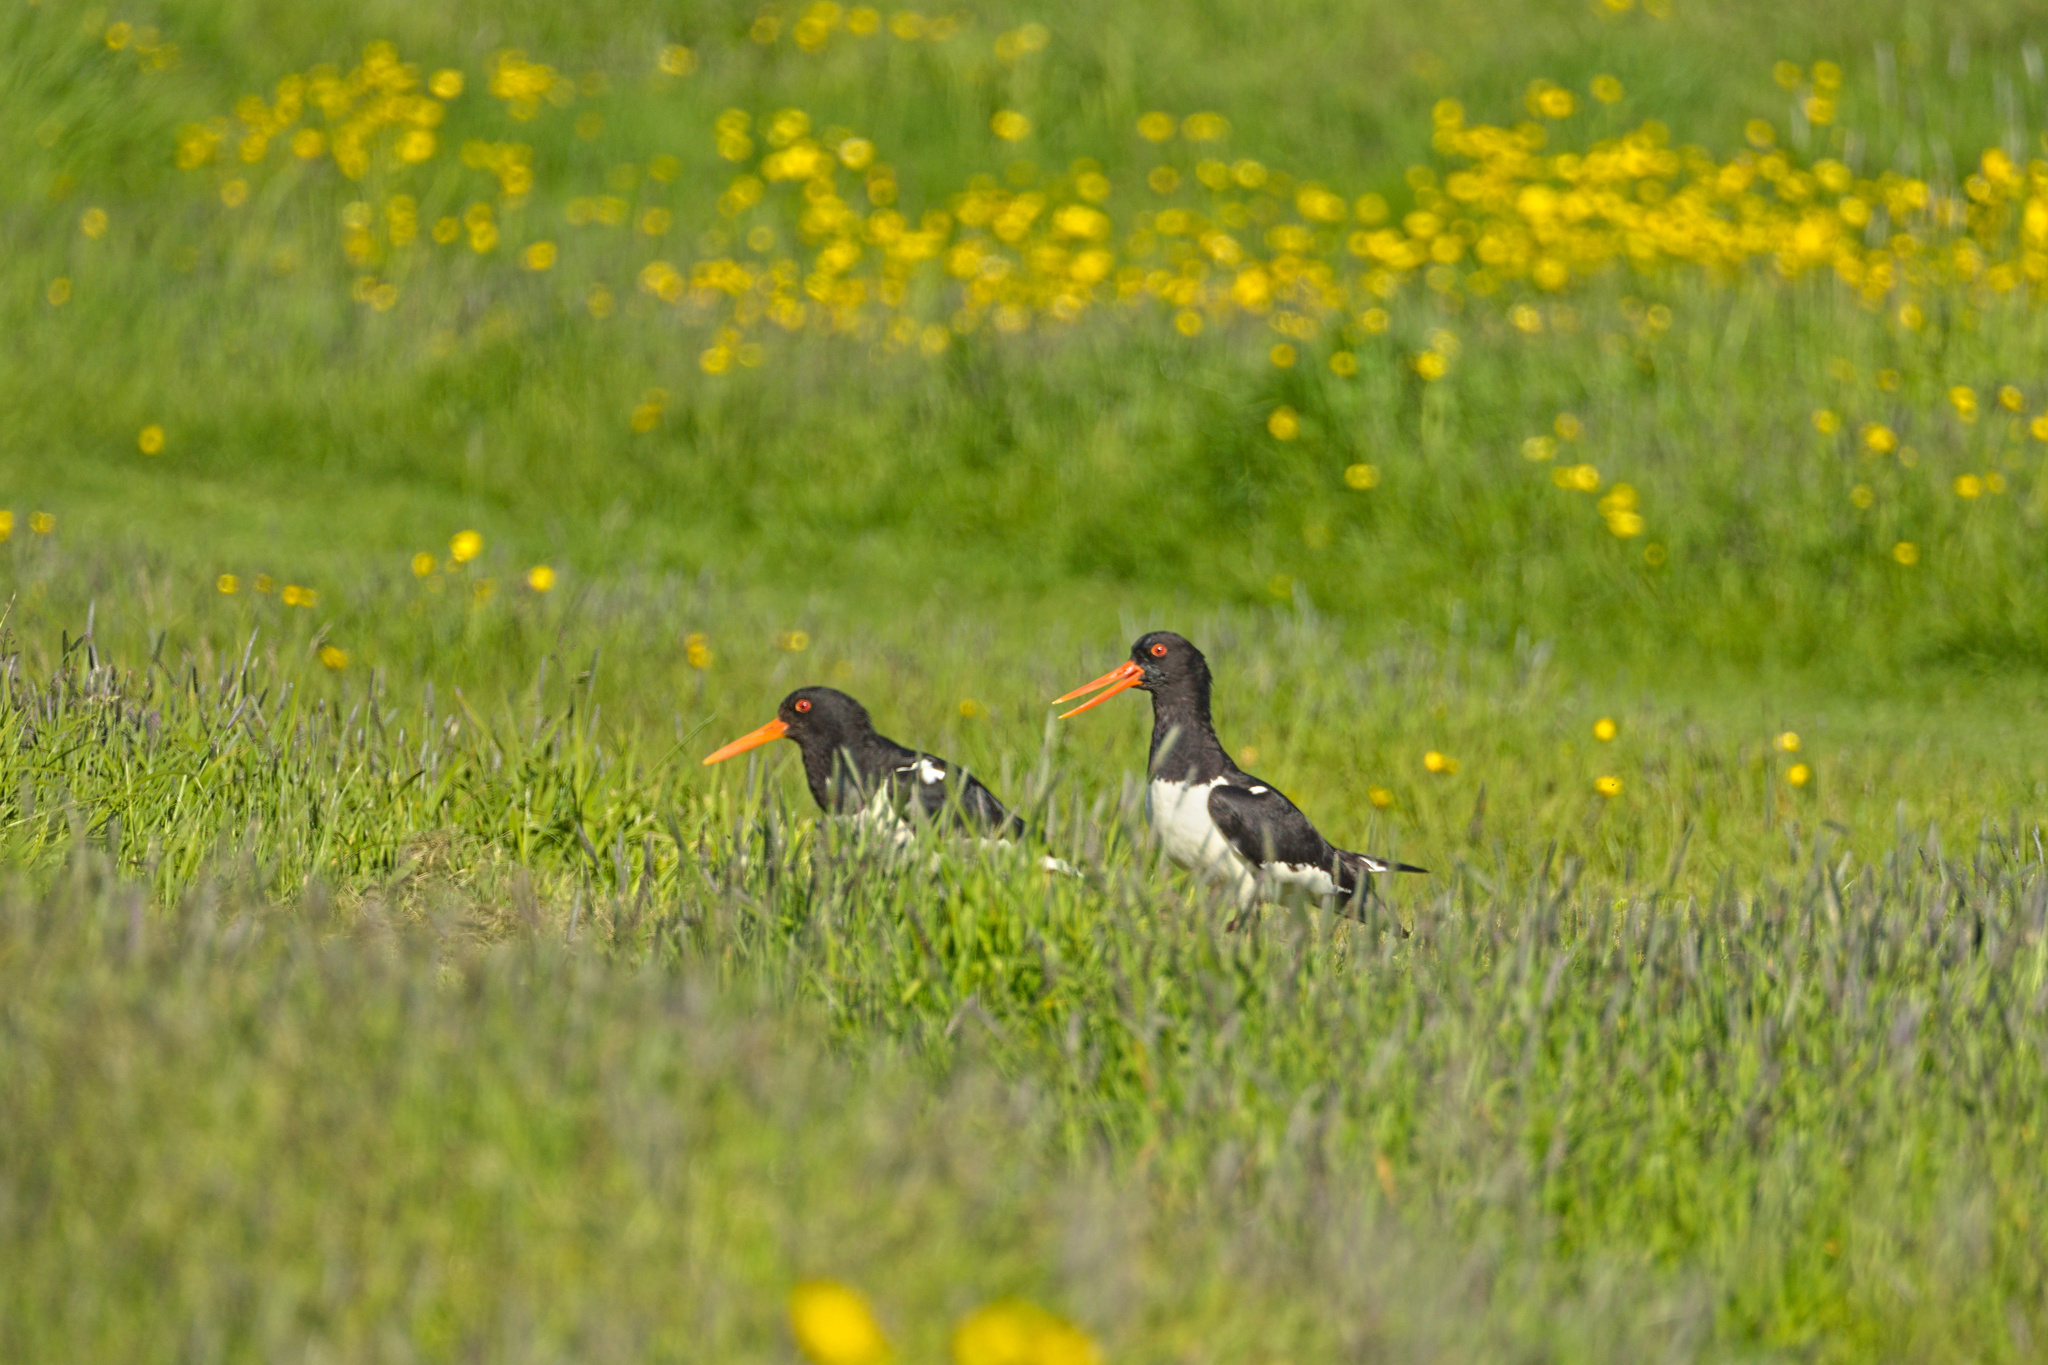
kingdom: Animalia
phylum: Chordata
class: Aves
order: Charadriiformes
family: Haematopodidae
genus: Haematopus
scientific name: Haematopus ostralegus
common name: Eurasian oystercatcher
